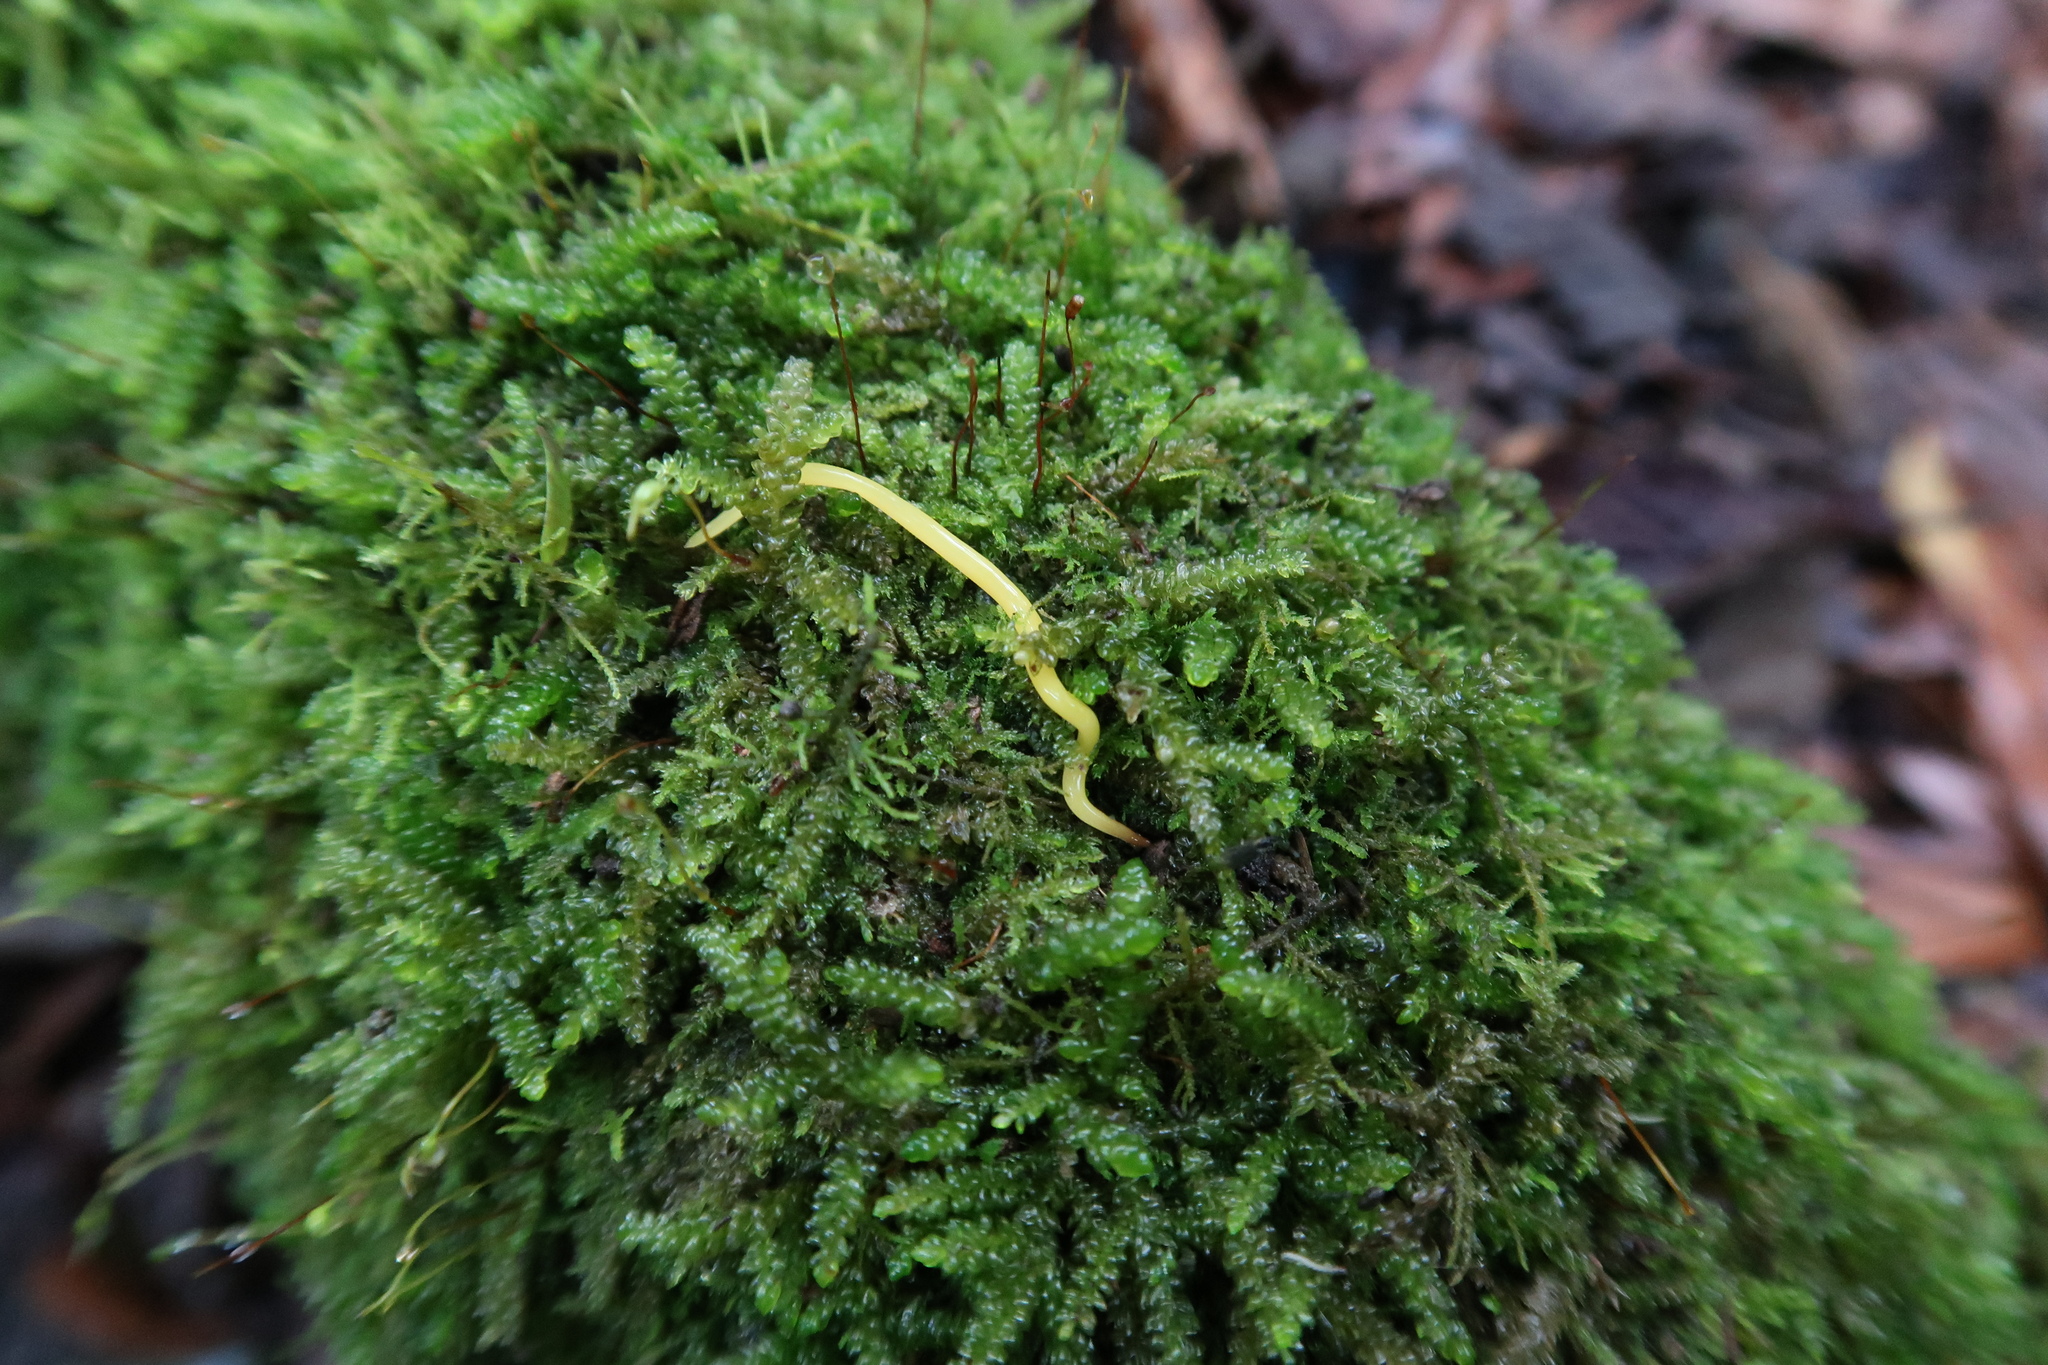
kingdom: Animalia
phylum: Platyhelminthes
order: Tricladida
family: Geoplanidae
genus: Fletchamia
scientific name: Fletchamia sugdeni
